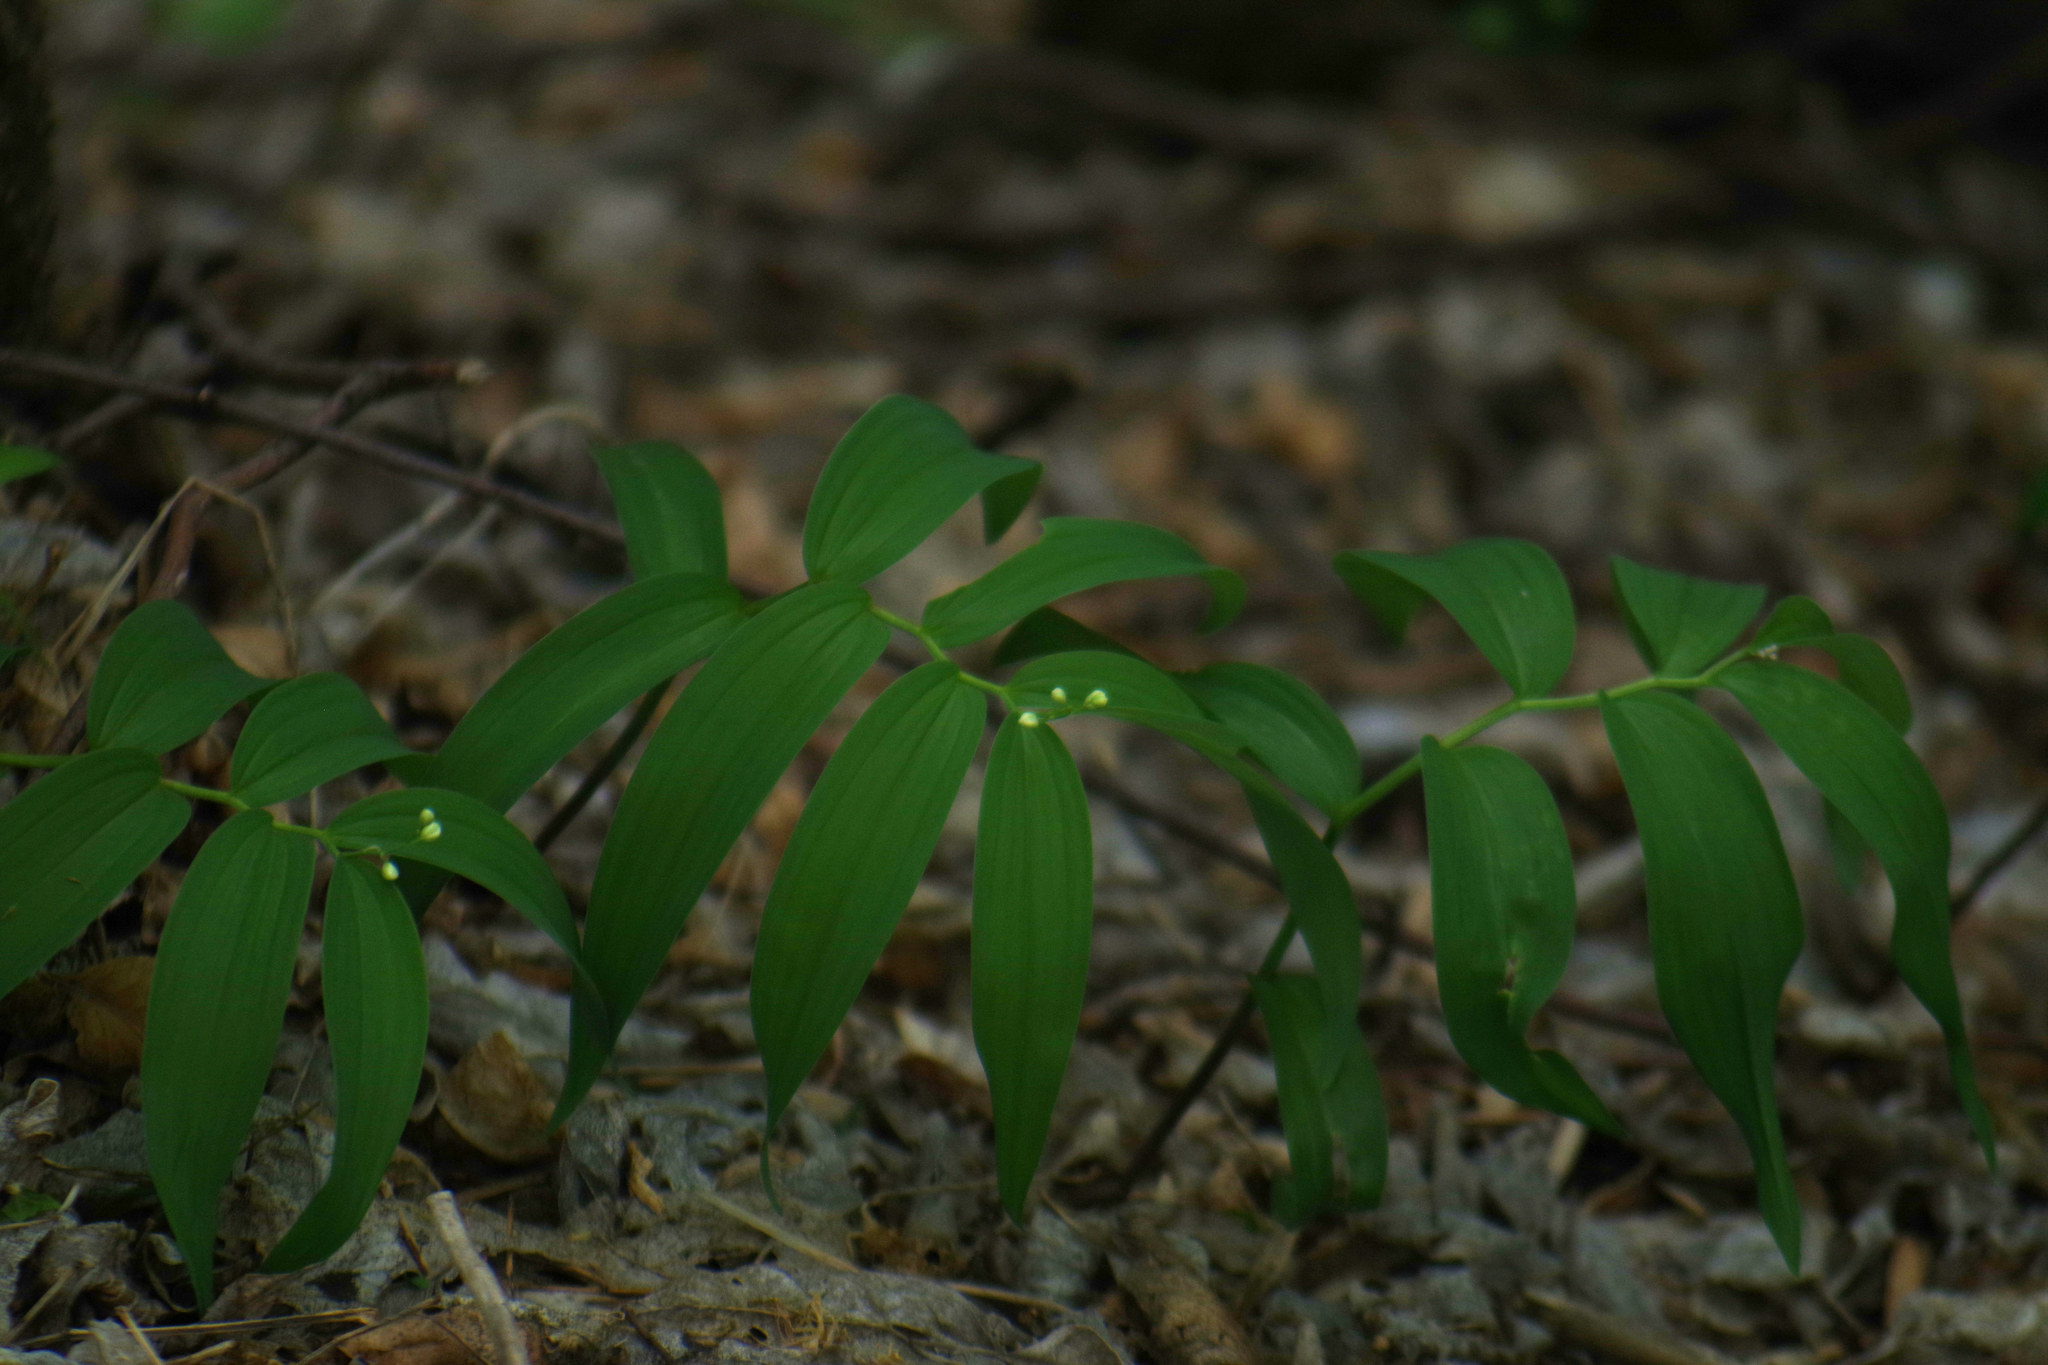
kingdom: Plantae
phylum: Tracheophyta
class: Liliopsida
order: Asparagales
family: Asparagaceae
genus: Maianthemum
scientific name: Maianthemum stellatum
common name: Little false solomon's seal
